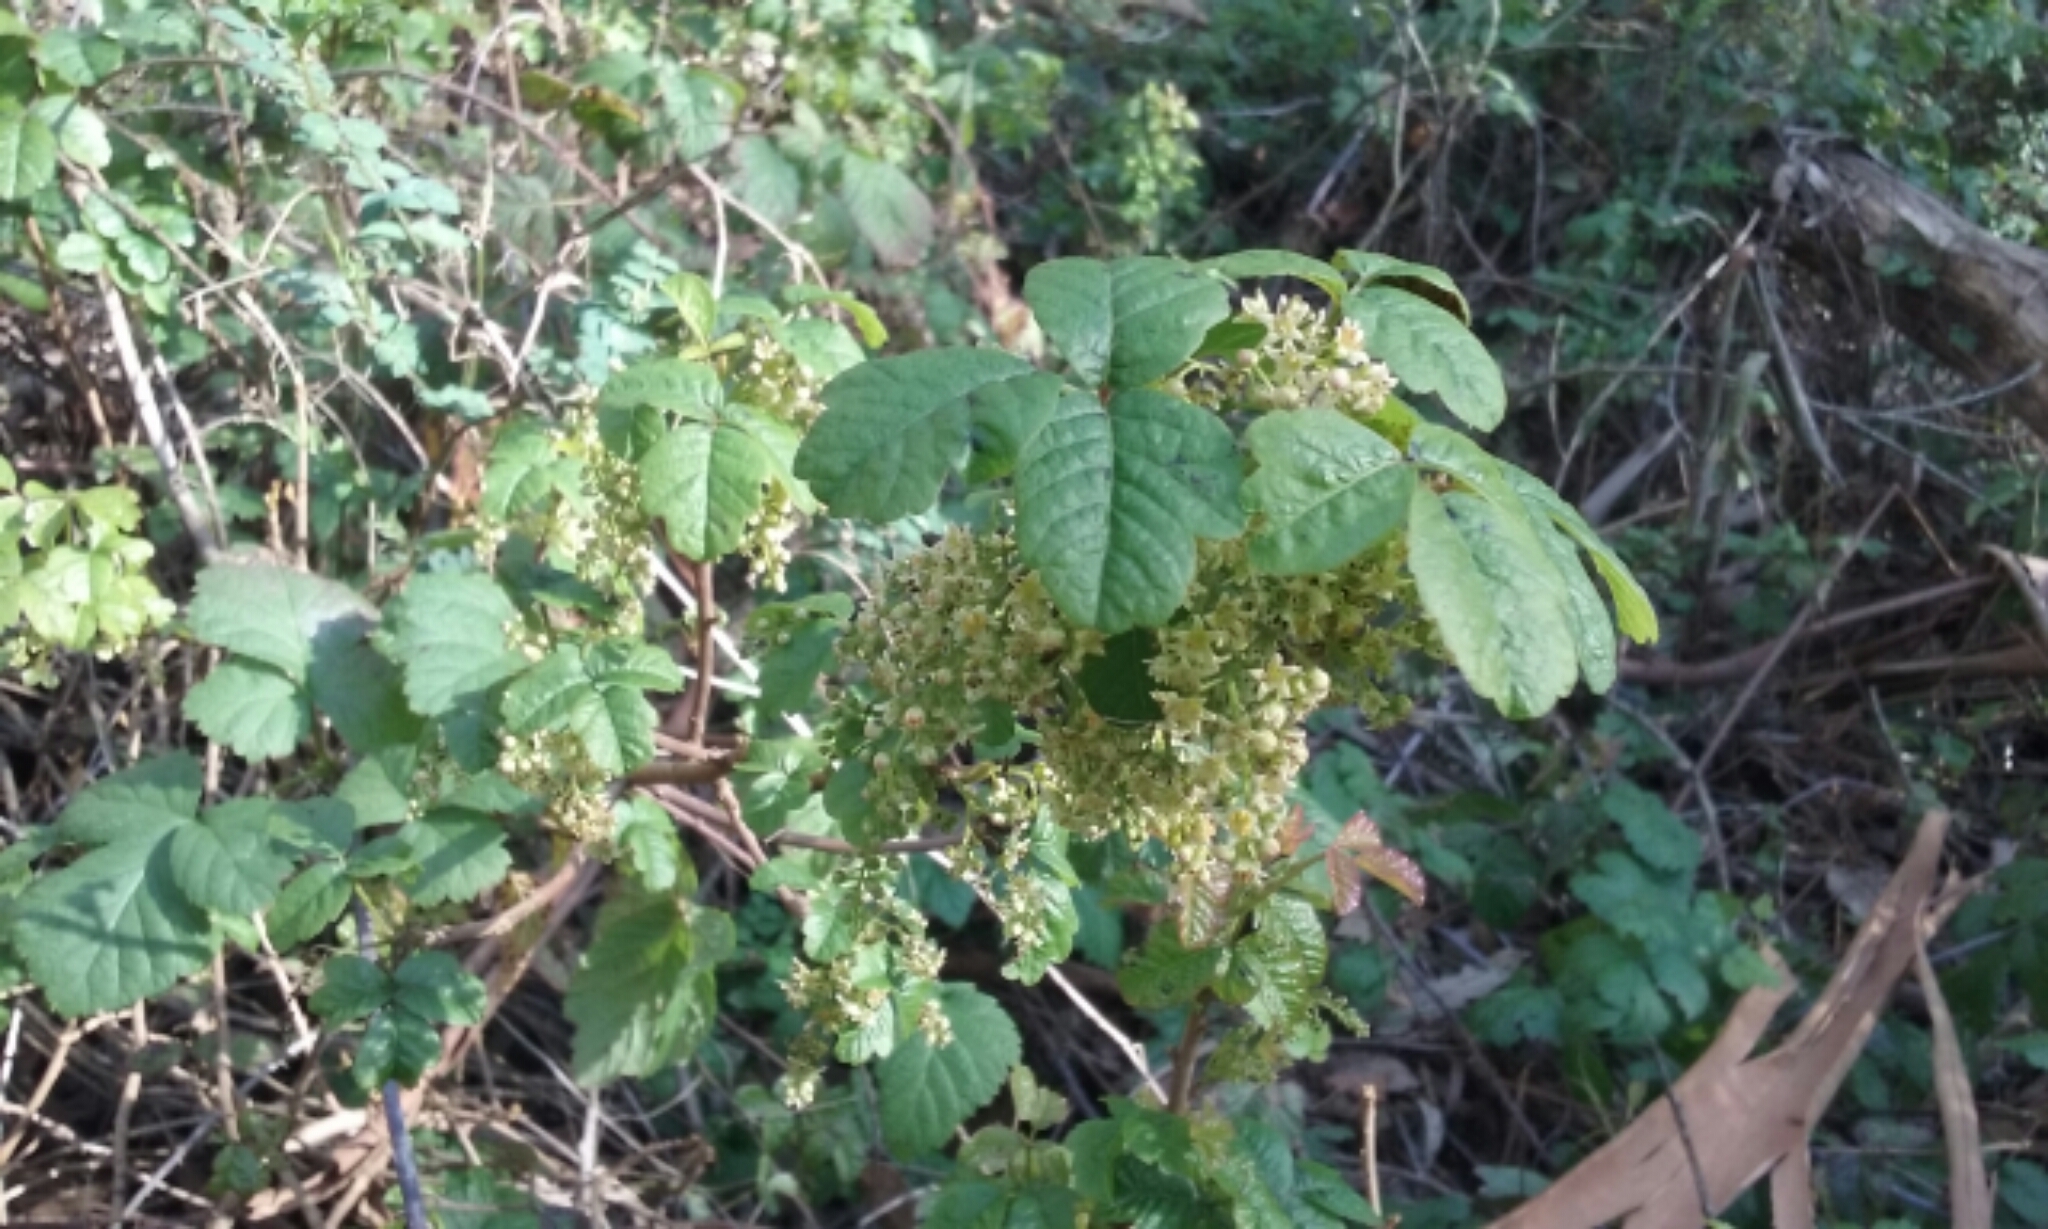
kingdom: Plantae
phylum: Tracheophyta
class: Magnoliopsida
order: Sapindales
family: Anacardiaceae
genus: Toxicodendron
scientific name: Toxicodendron diversilobum
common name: Pacific poison-oak
